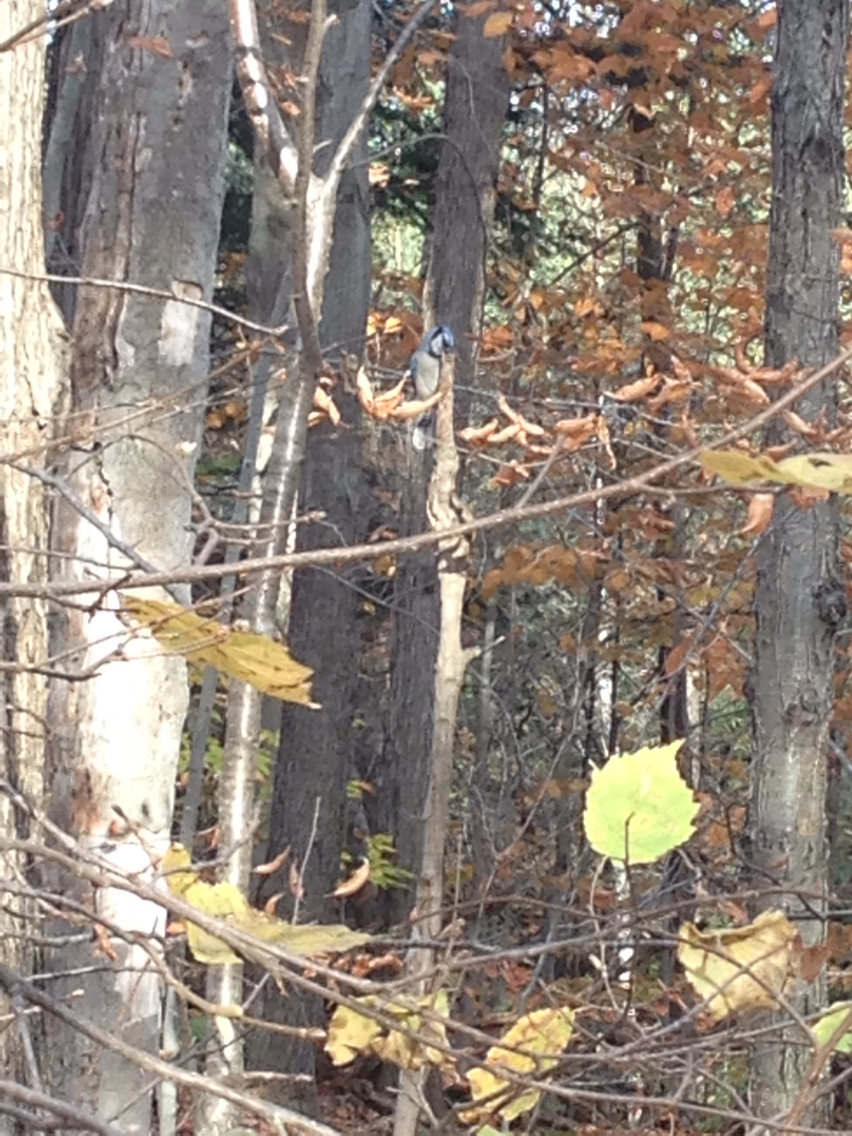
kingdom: Animalia
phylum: Chordata
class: Aves
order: Passeriformes
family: Corvidae
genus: Cyanocitta
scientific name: Cyanocitta cristata
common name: Blue jay
